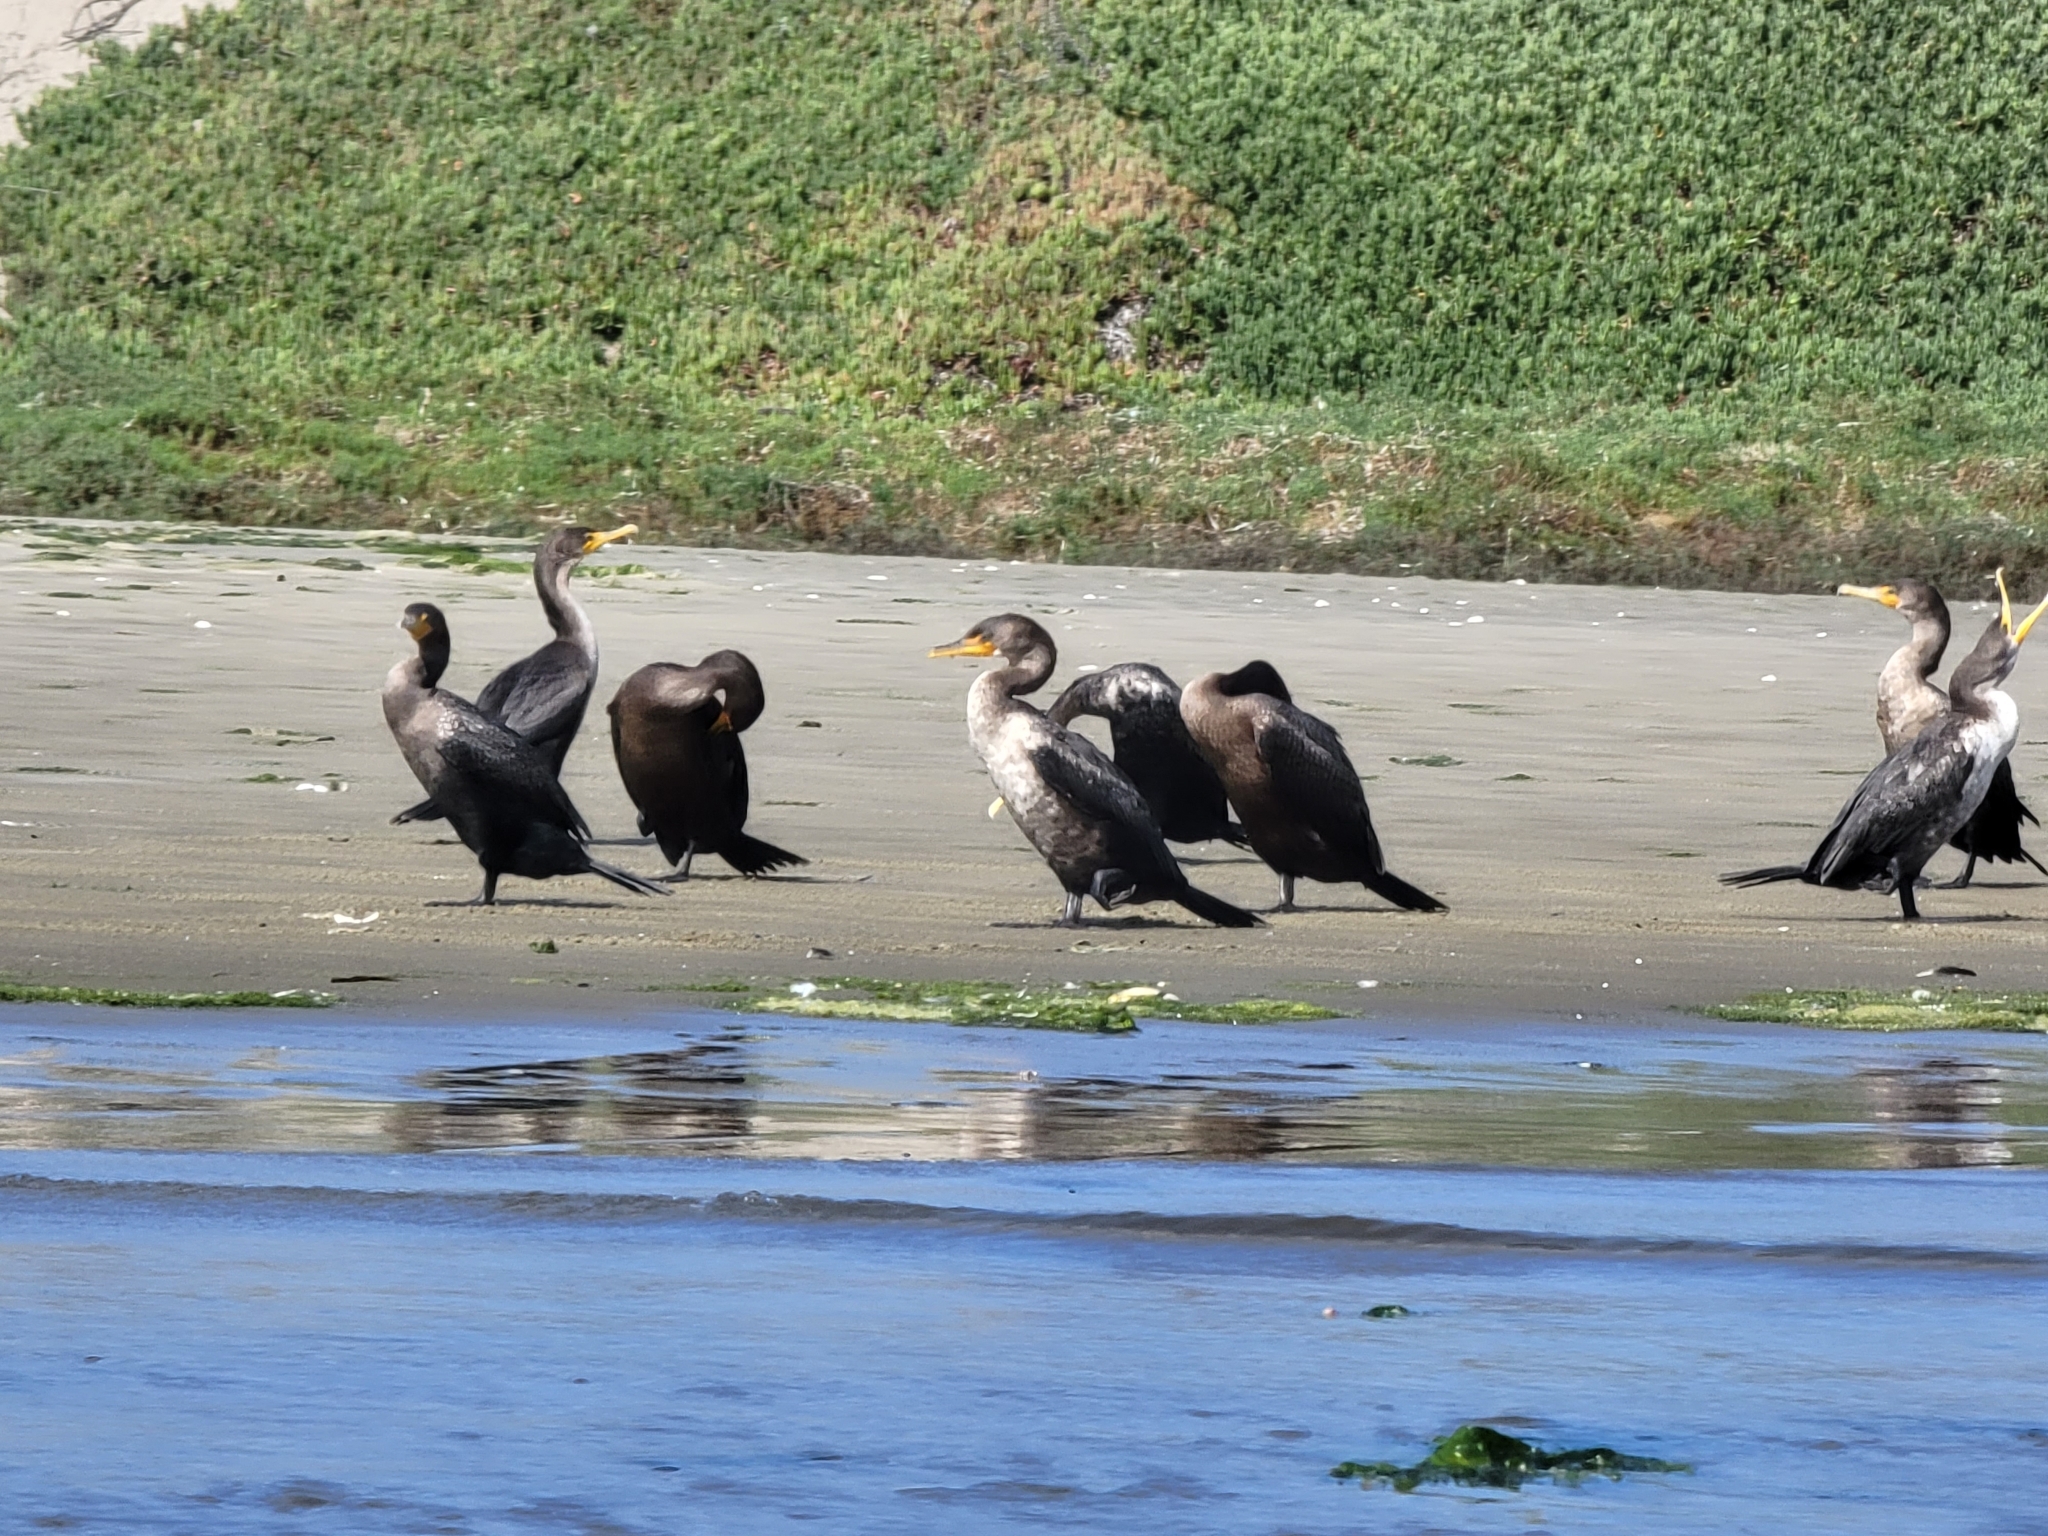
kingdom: Animalia
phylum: Chordata
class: Aves
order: Suliformes
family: Phalacrocoracidae
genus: Phalacrocorax
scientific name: Phalacrocorax auritus
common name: Double-crested cormorant
